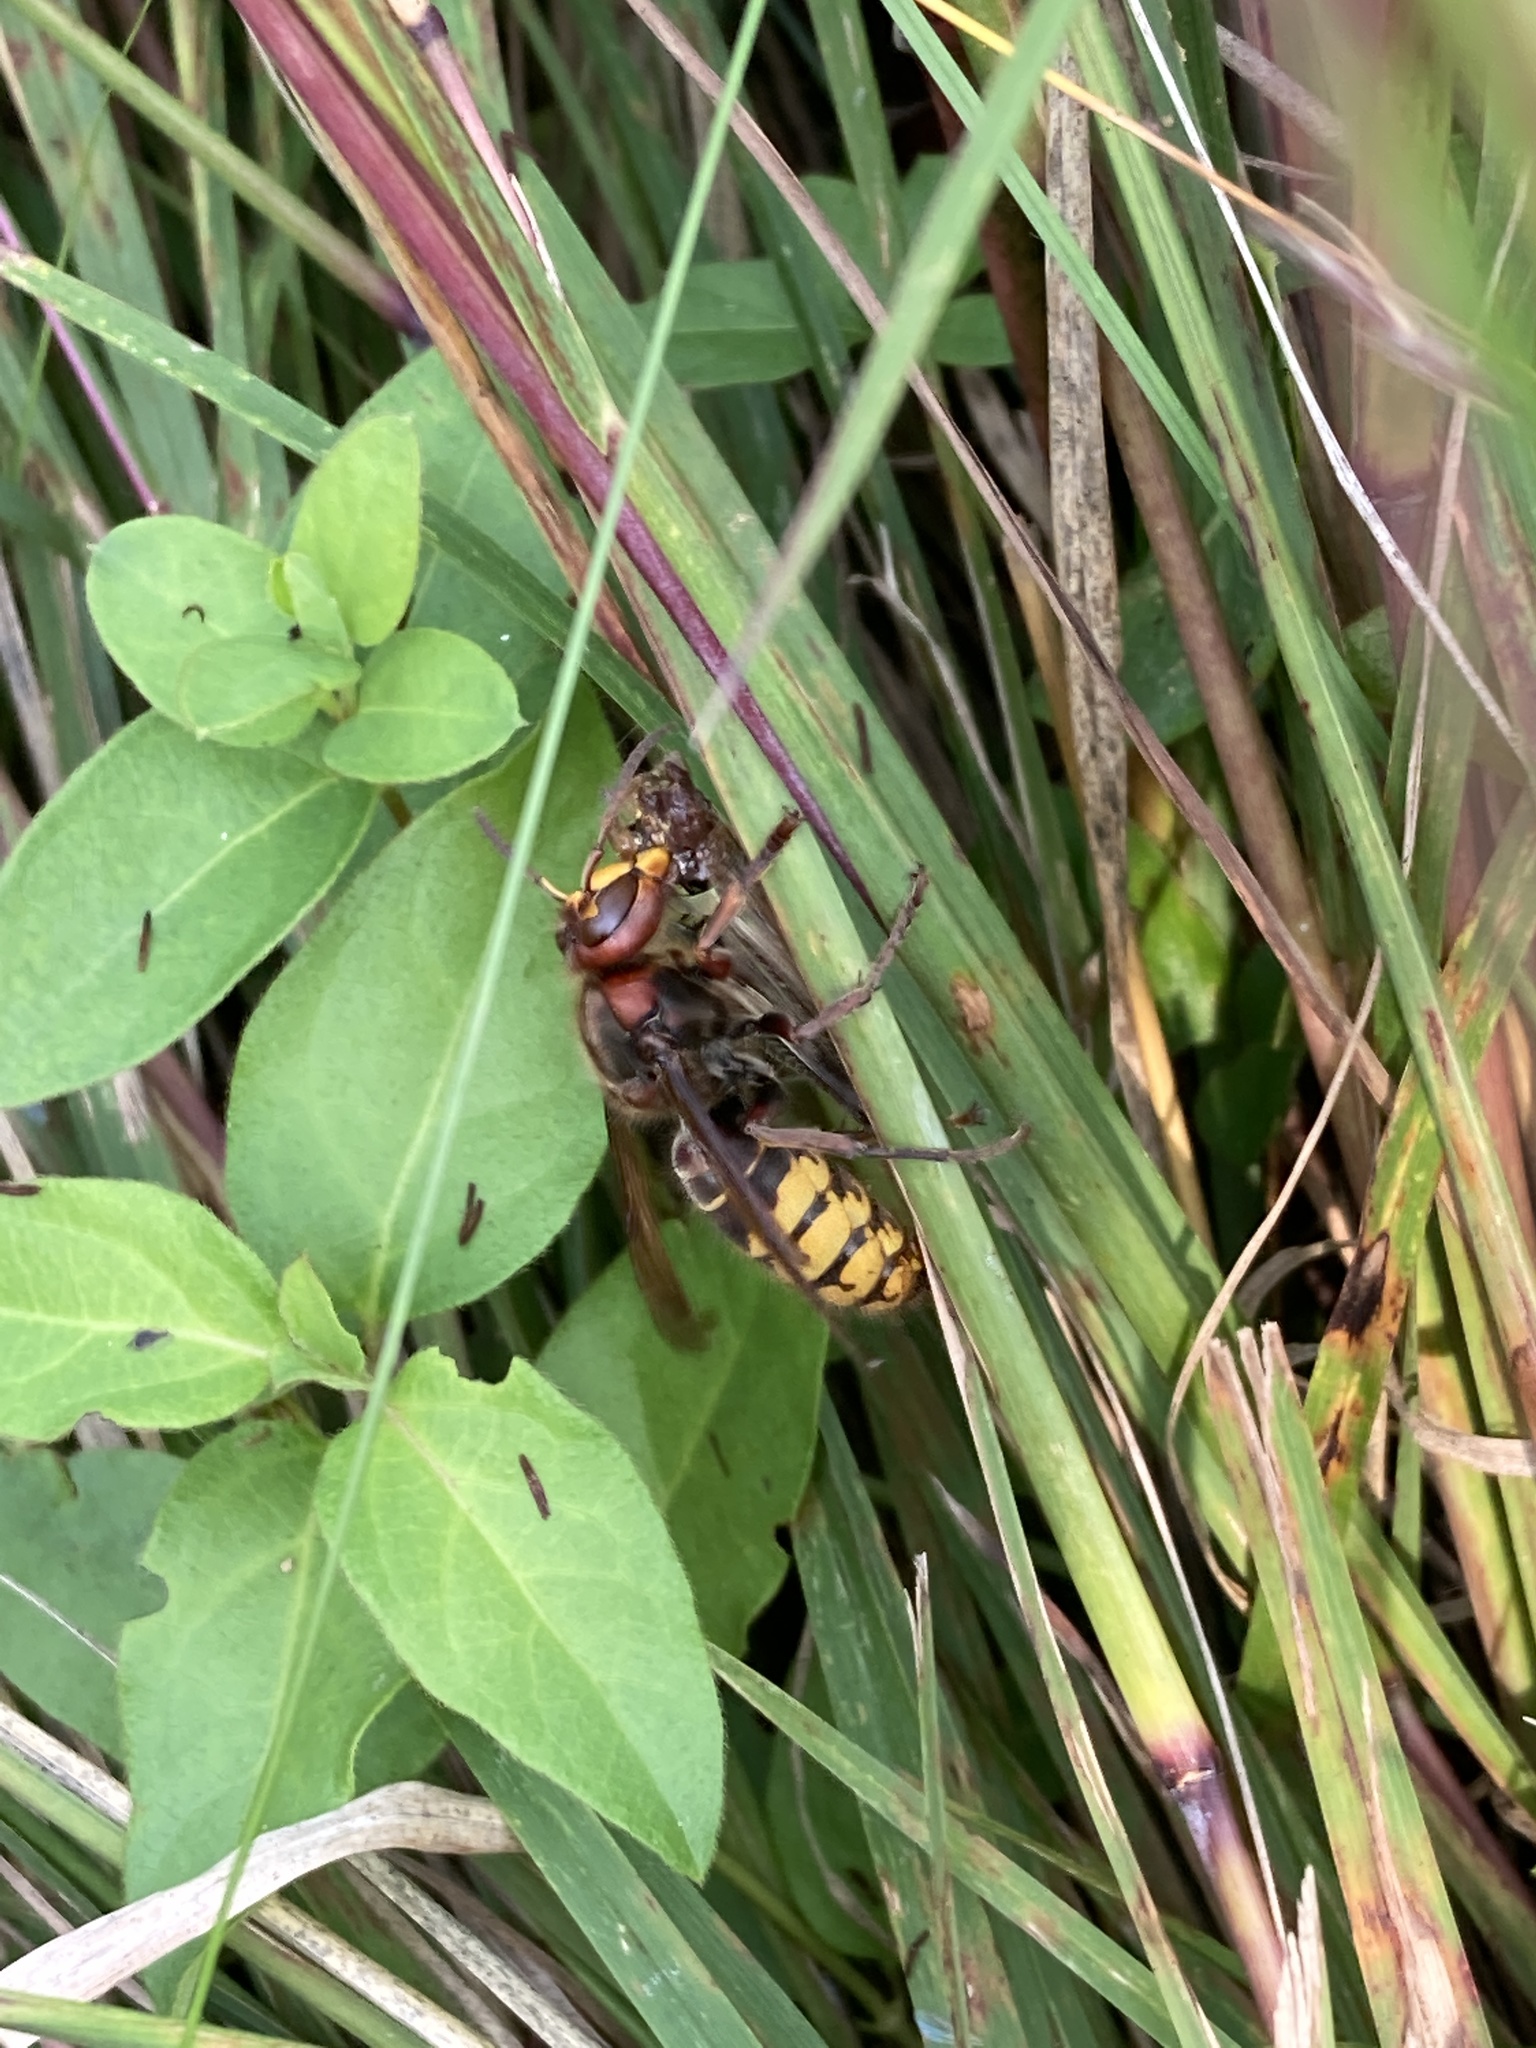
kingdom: Animalia
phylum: Arthropoda
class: Insecta
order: Hymenoptera
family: Vespidae
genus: Vespa
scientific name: Vespa crabro
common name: Hornet
